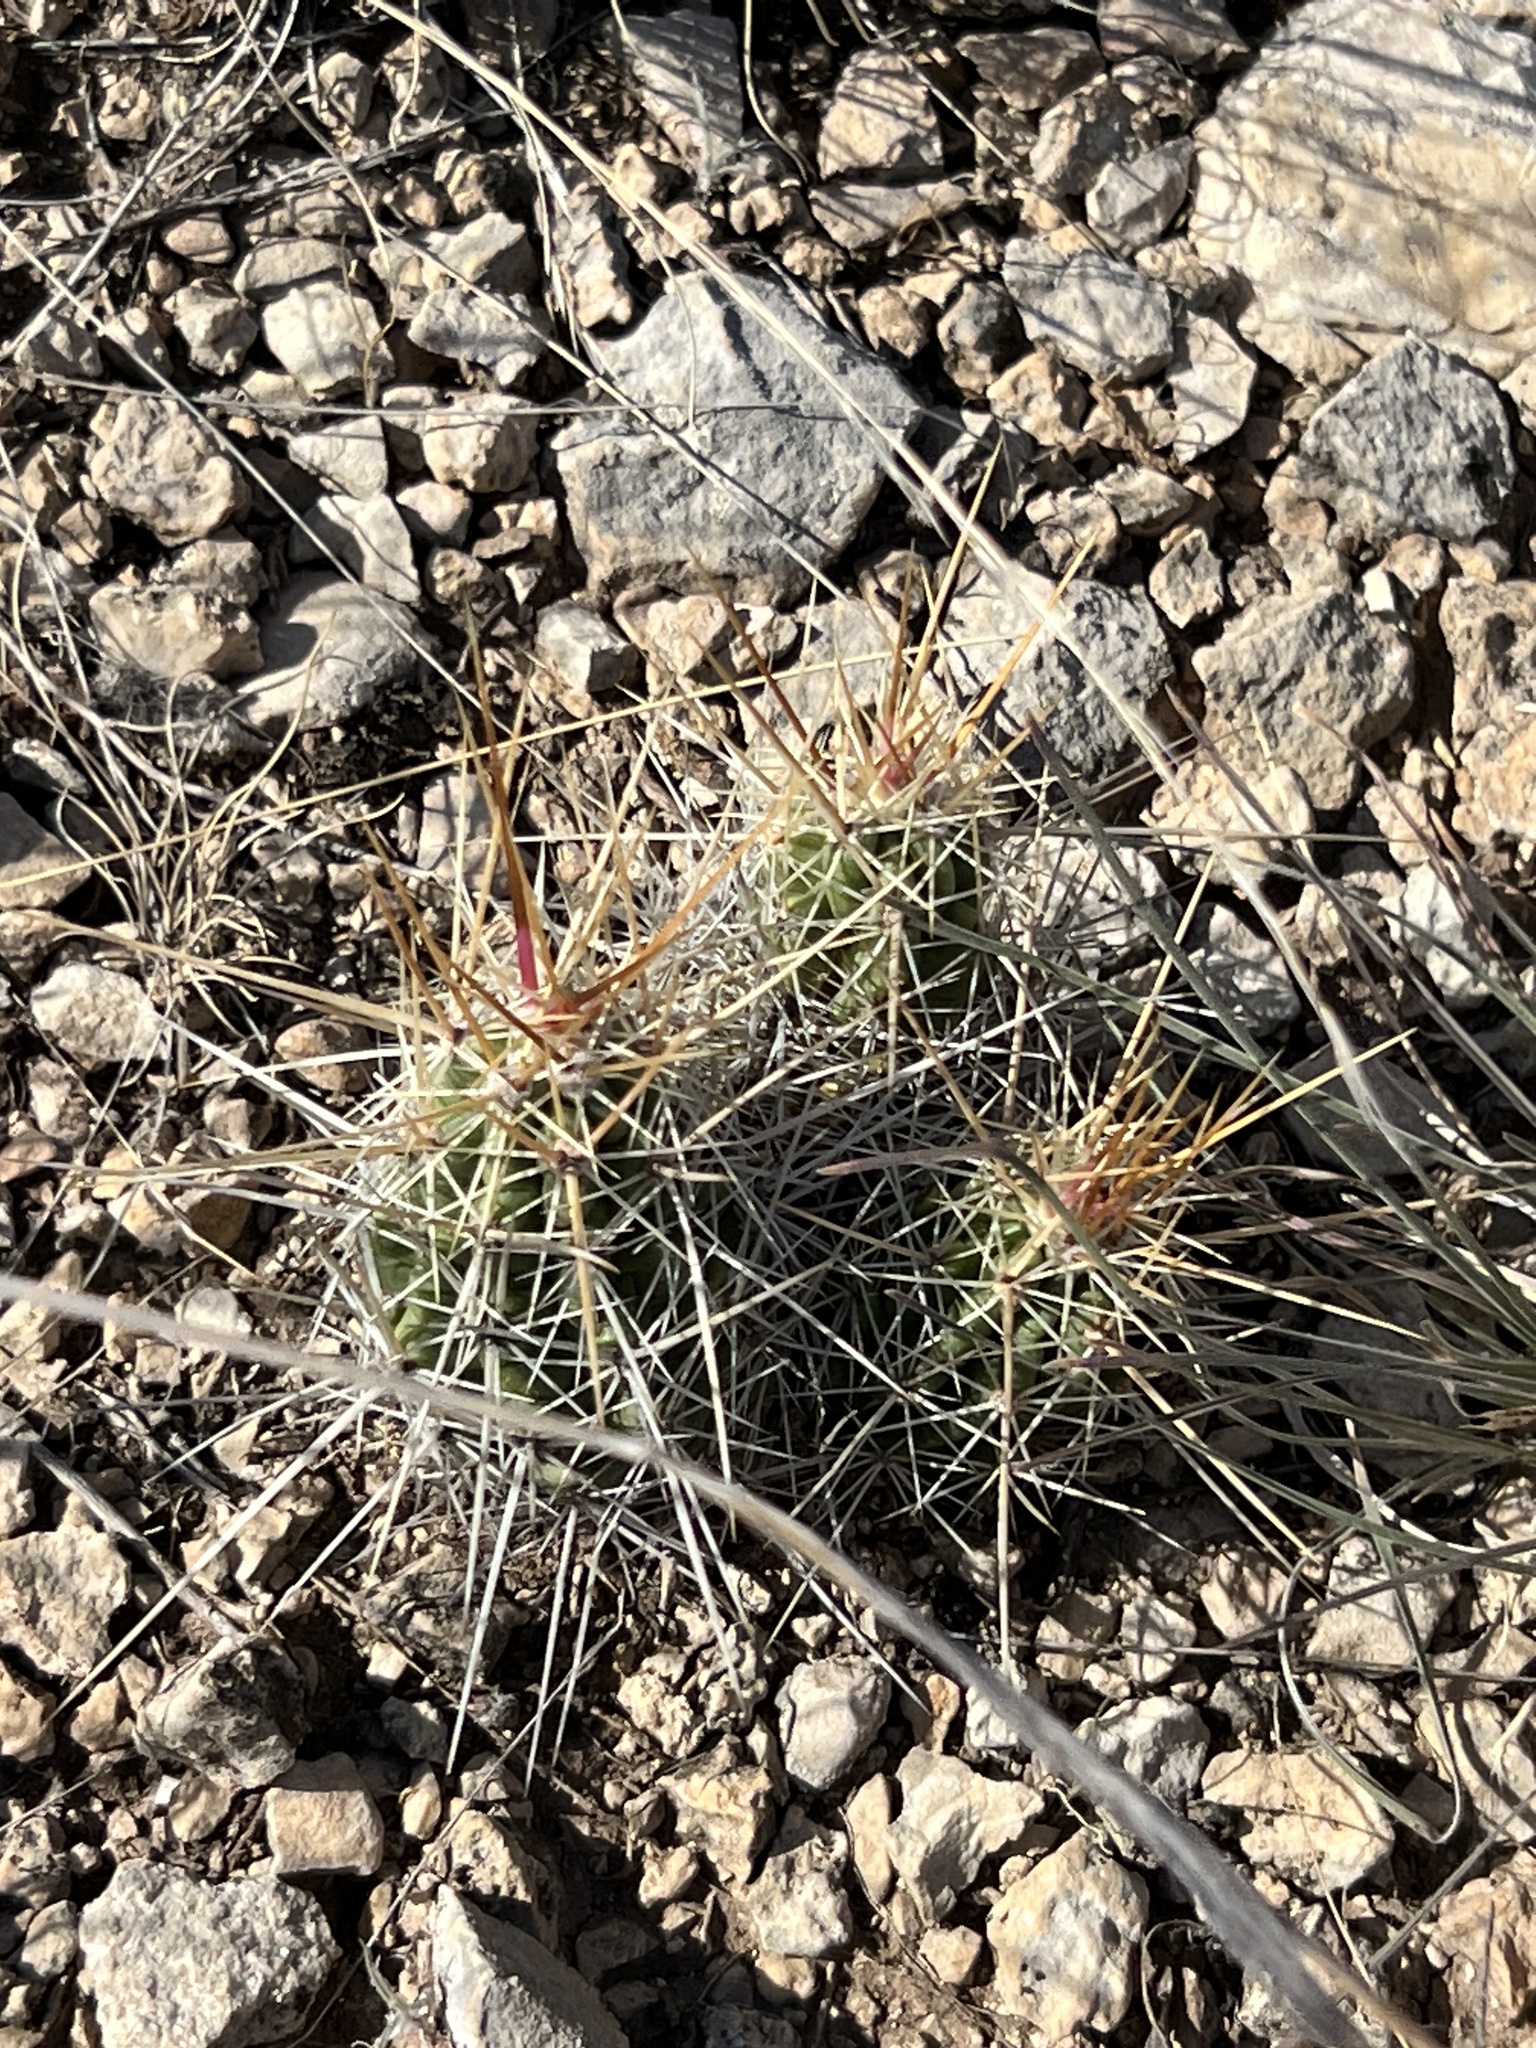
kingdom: Plantae
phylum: Tracheophyta
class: Magnoliopsida
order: Caryophyllales
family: Cactaceae
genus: Echinocereus
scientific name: Echinocereus enneacanthus
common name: Pitaya
